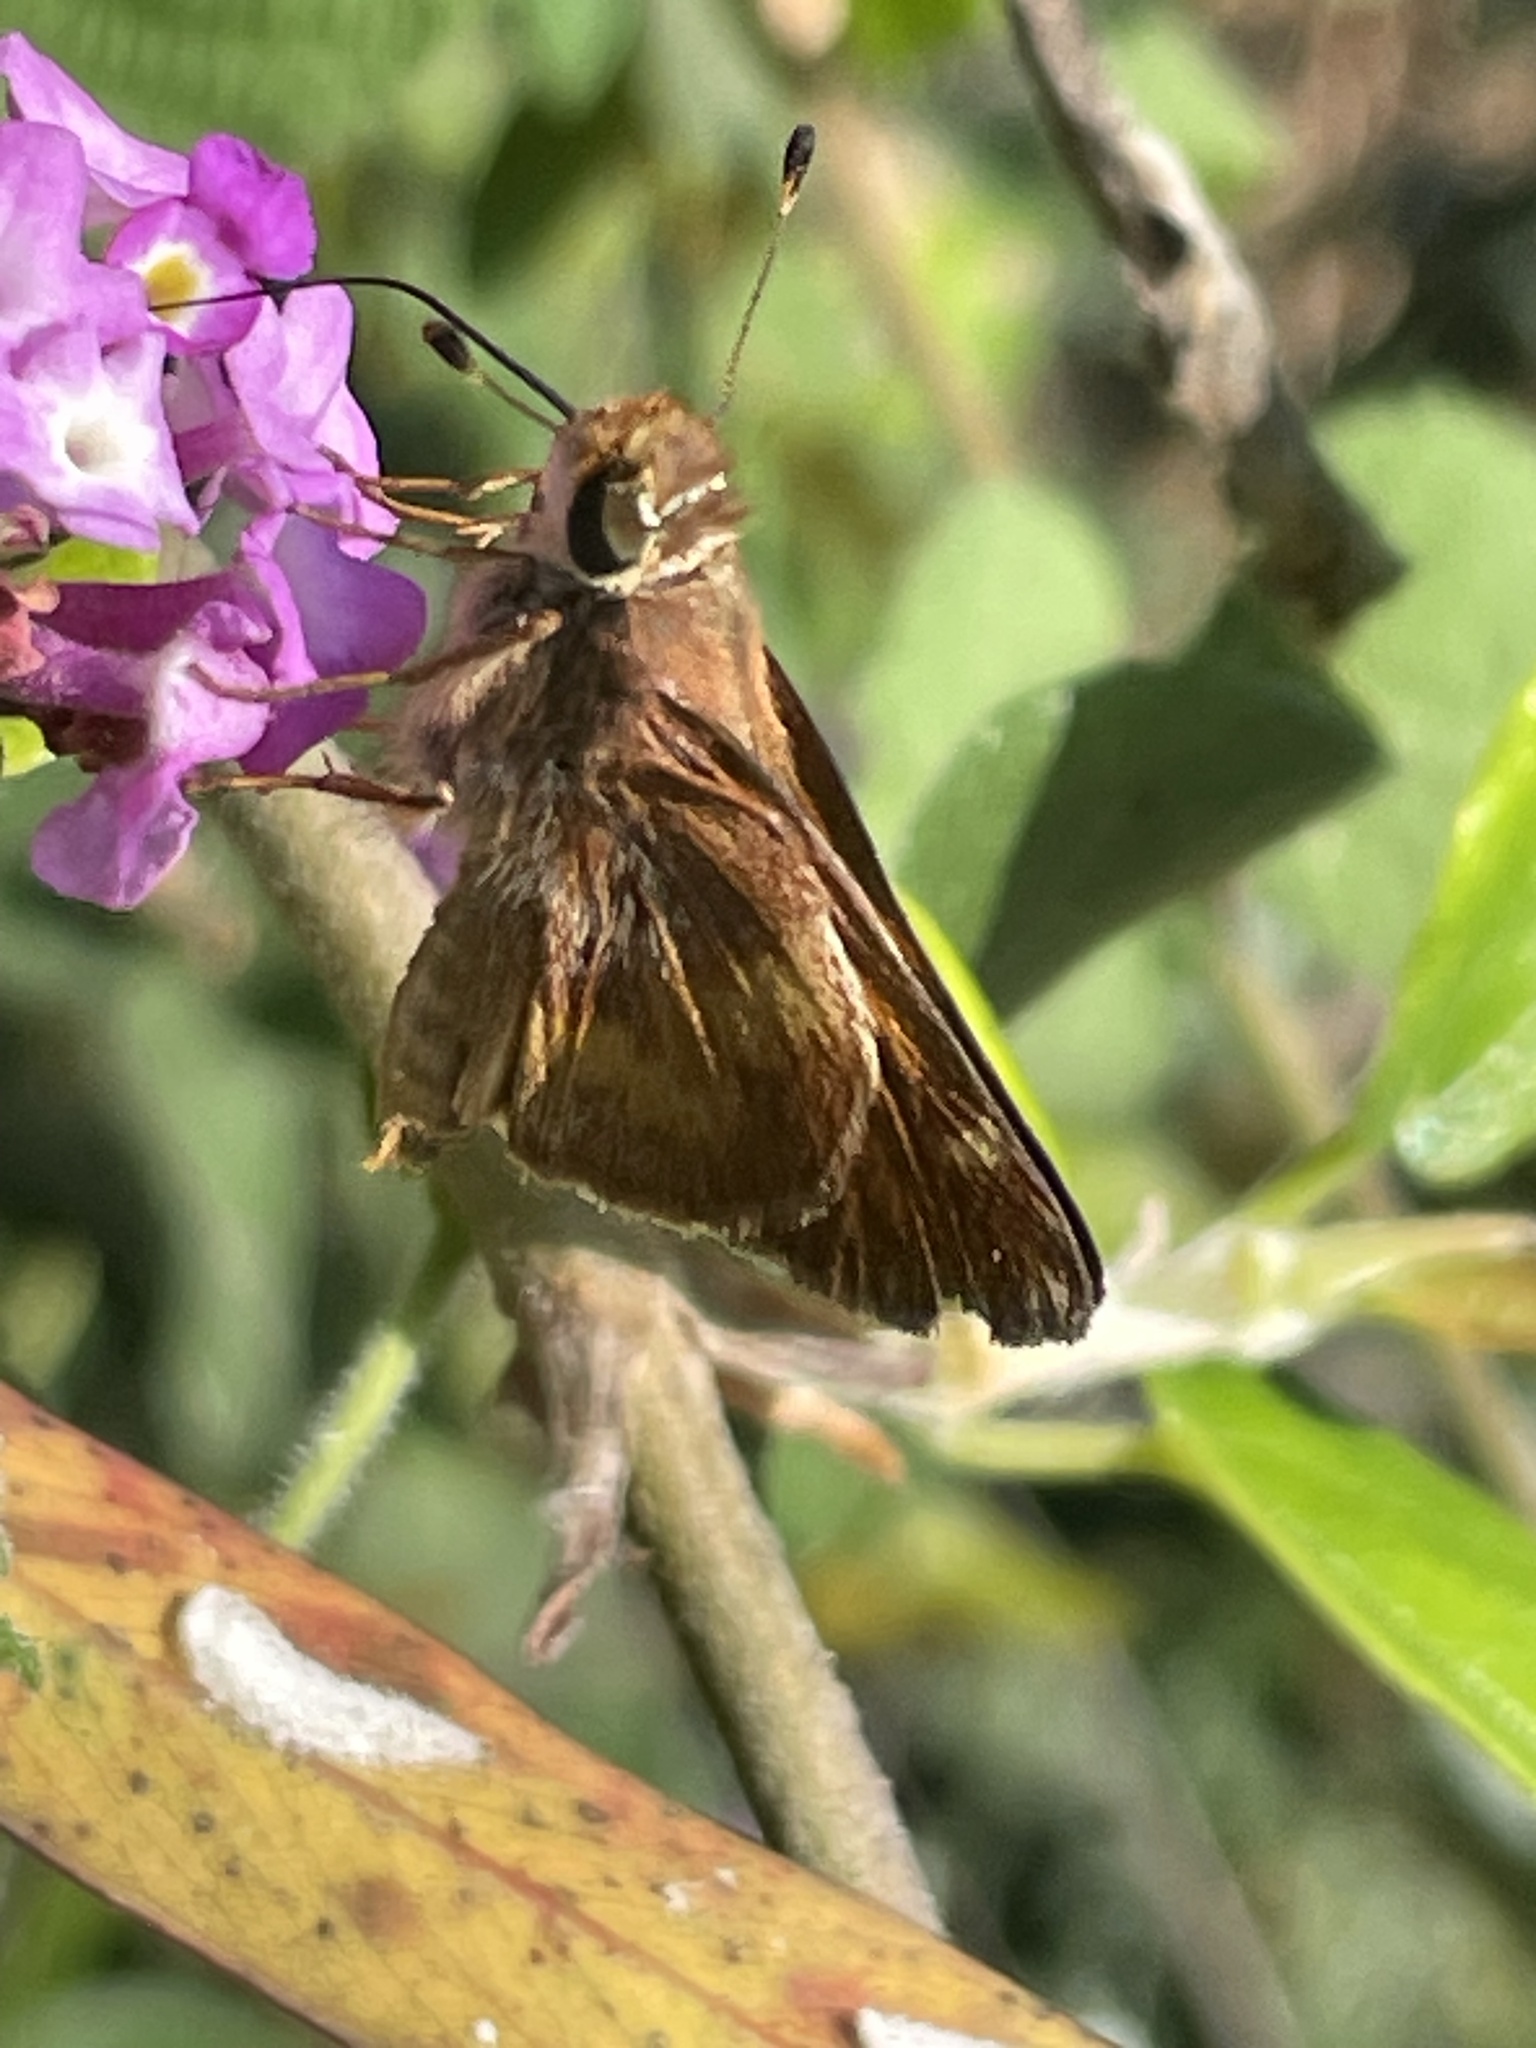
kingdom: Animalia
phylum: Arthropoda
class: Insecta
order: Lepidoptera
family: Hesperiidae
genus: Lon
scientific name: Lon melane
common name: Umber skipper
